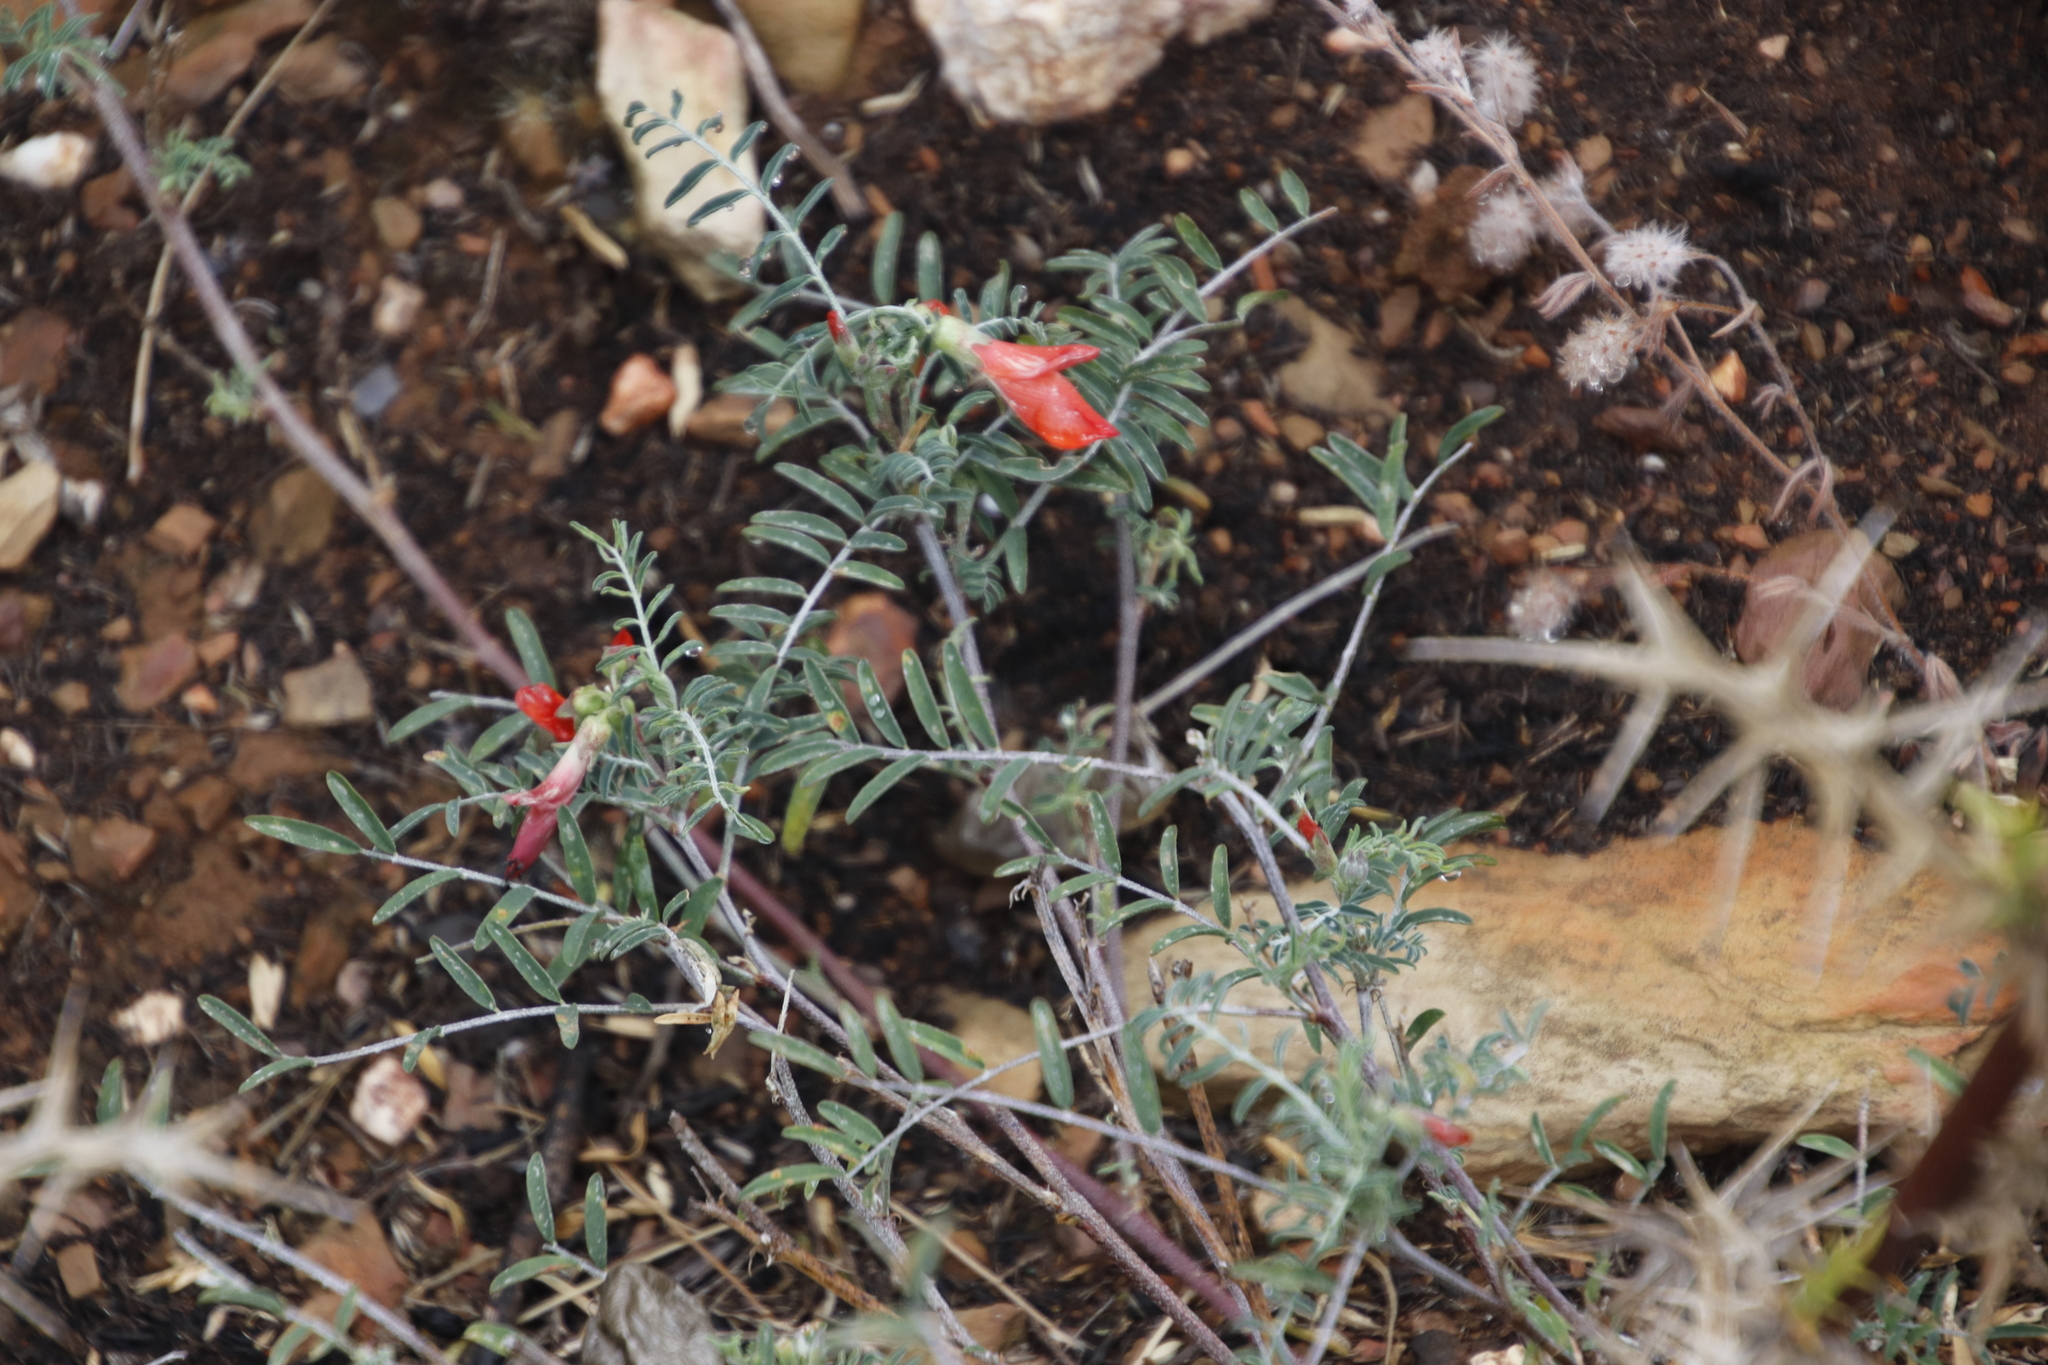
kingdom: Plantae
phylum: Tracheophyta
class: Magnoliopsida
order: Fabales
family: Fabaceae
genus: Lessertia
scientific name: Lessertia frutescens
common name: Balloon-pea
